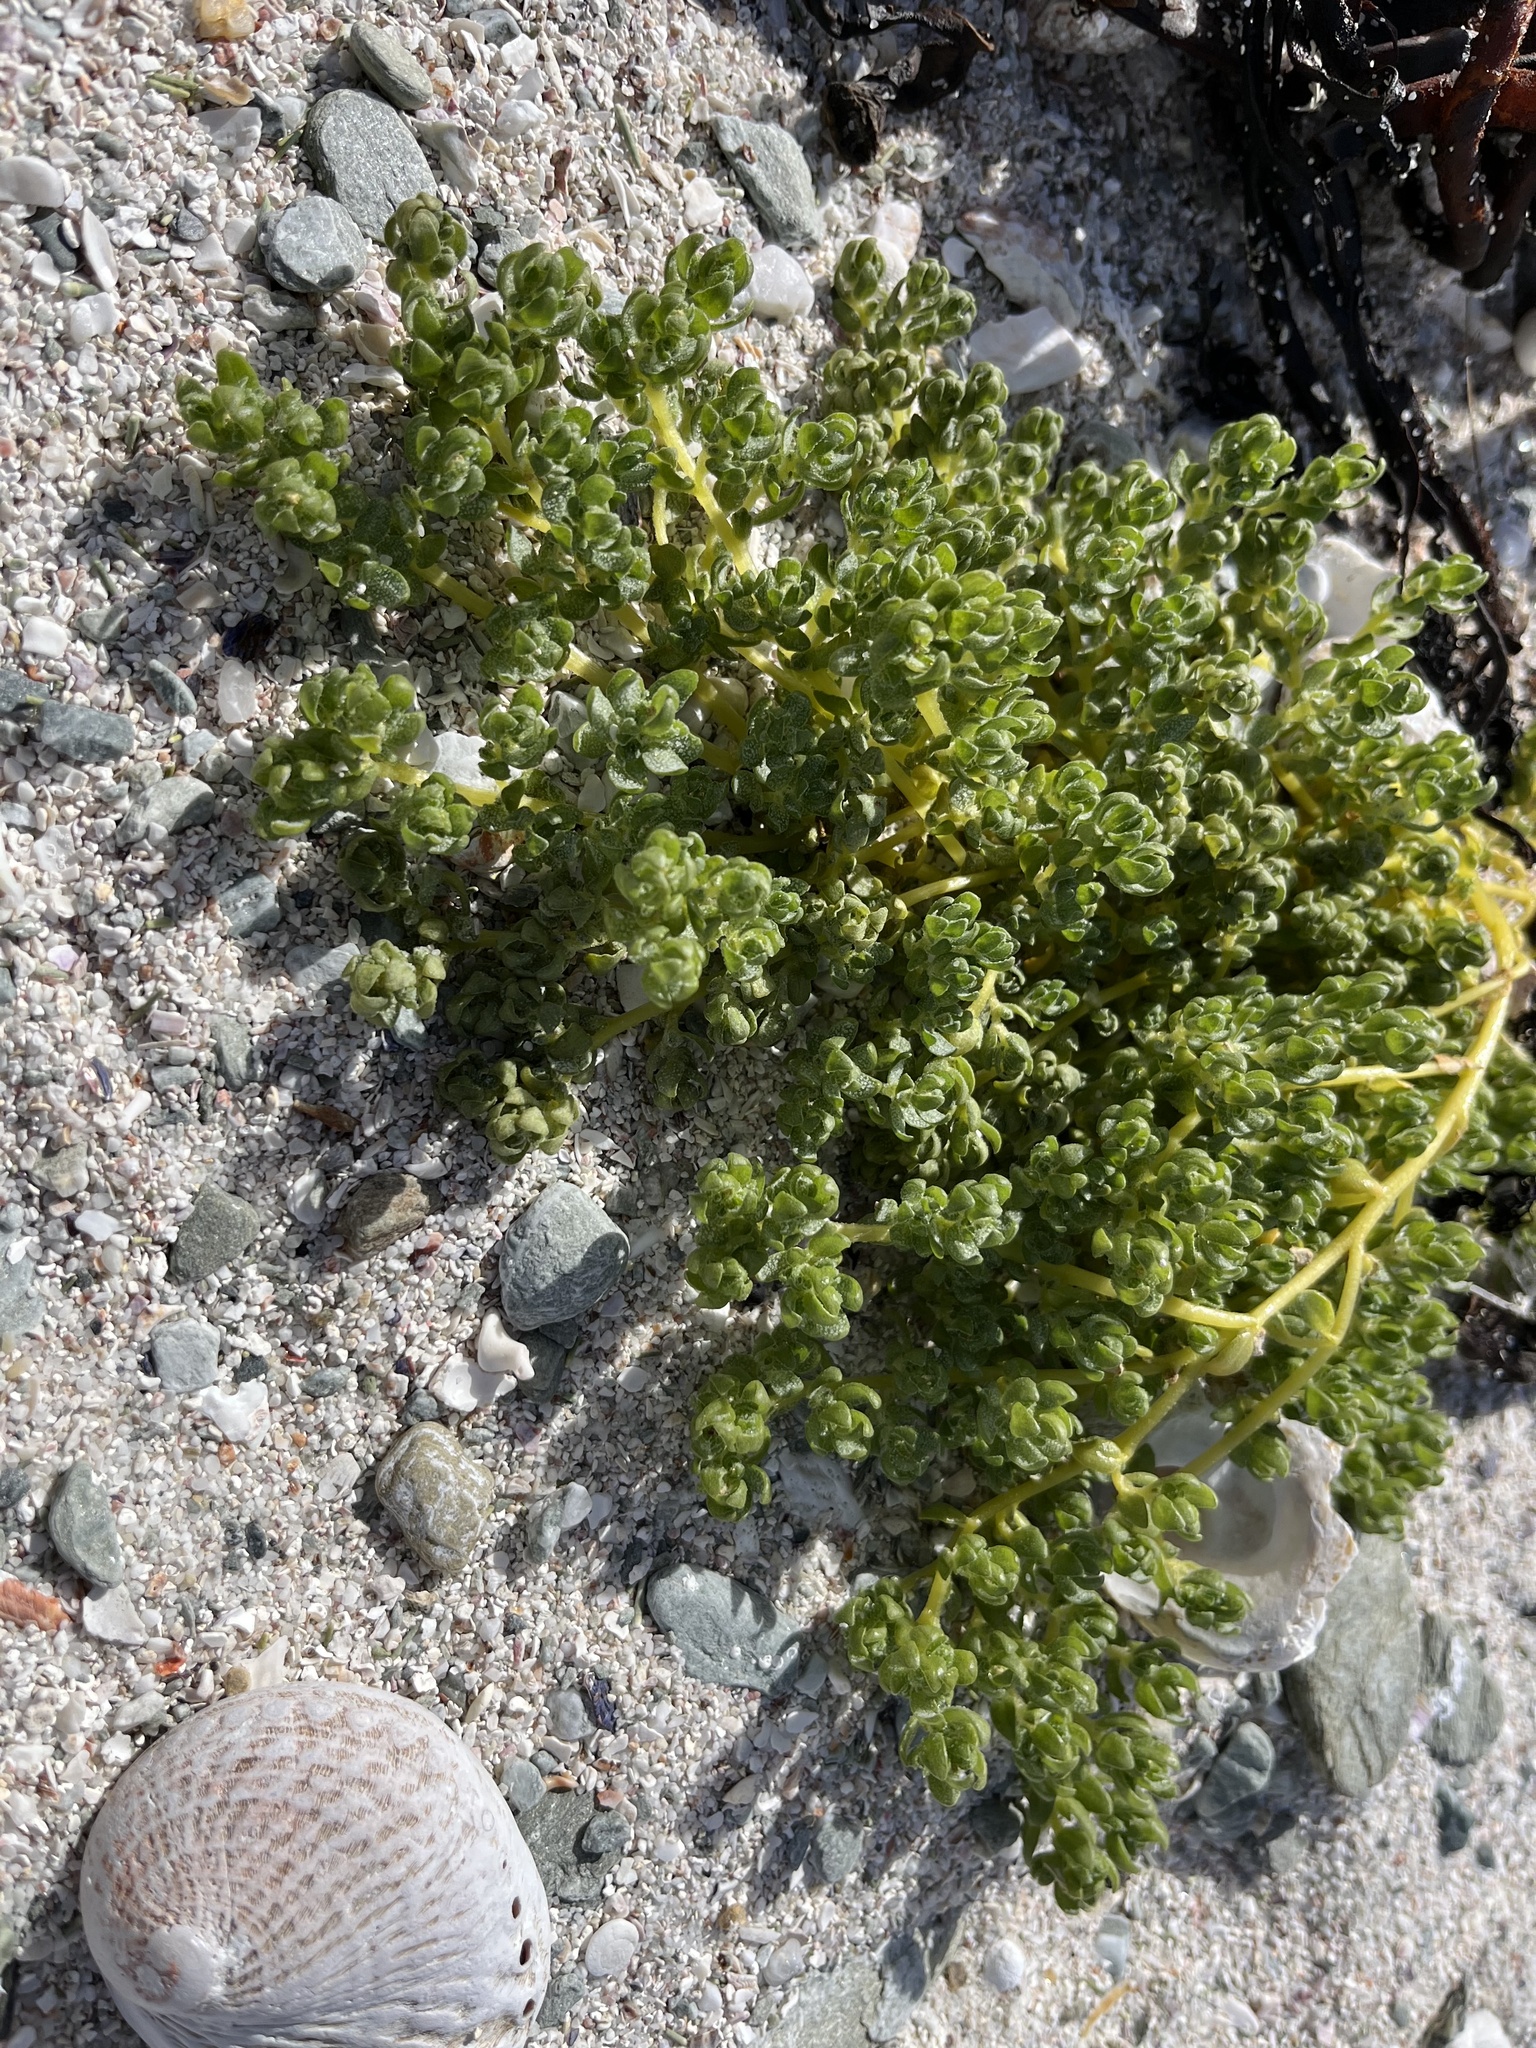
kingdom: Plantae
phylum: Tracheophyta
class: Magnoliopsida
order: Caryophyllales
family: Amaranthaceae
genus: Atriplex
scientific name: Atriplex billardierei
